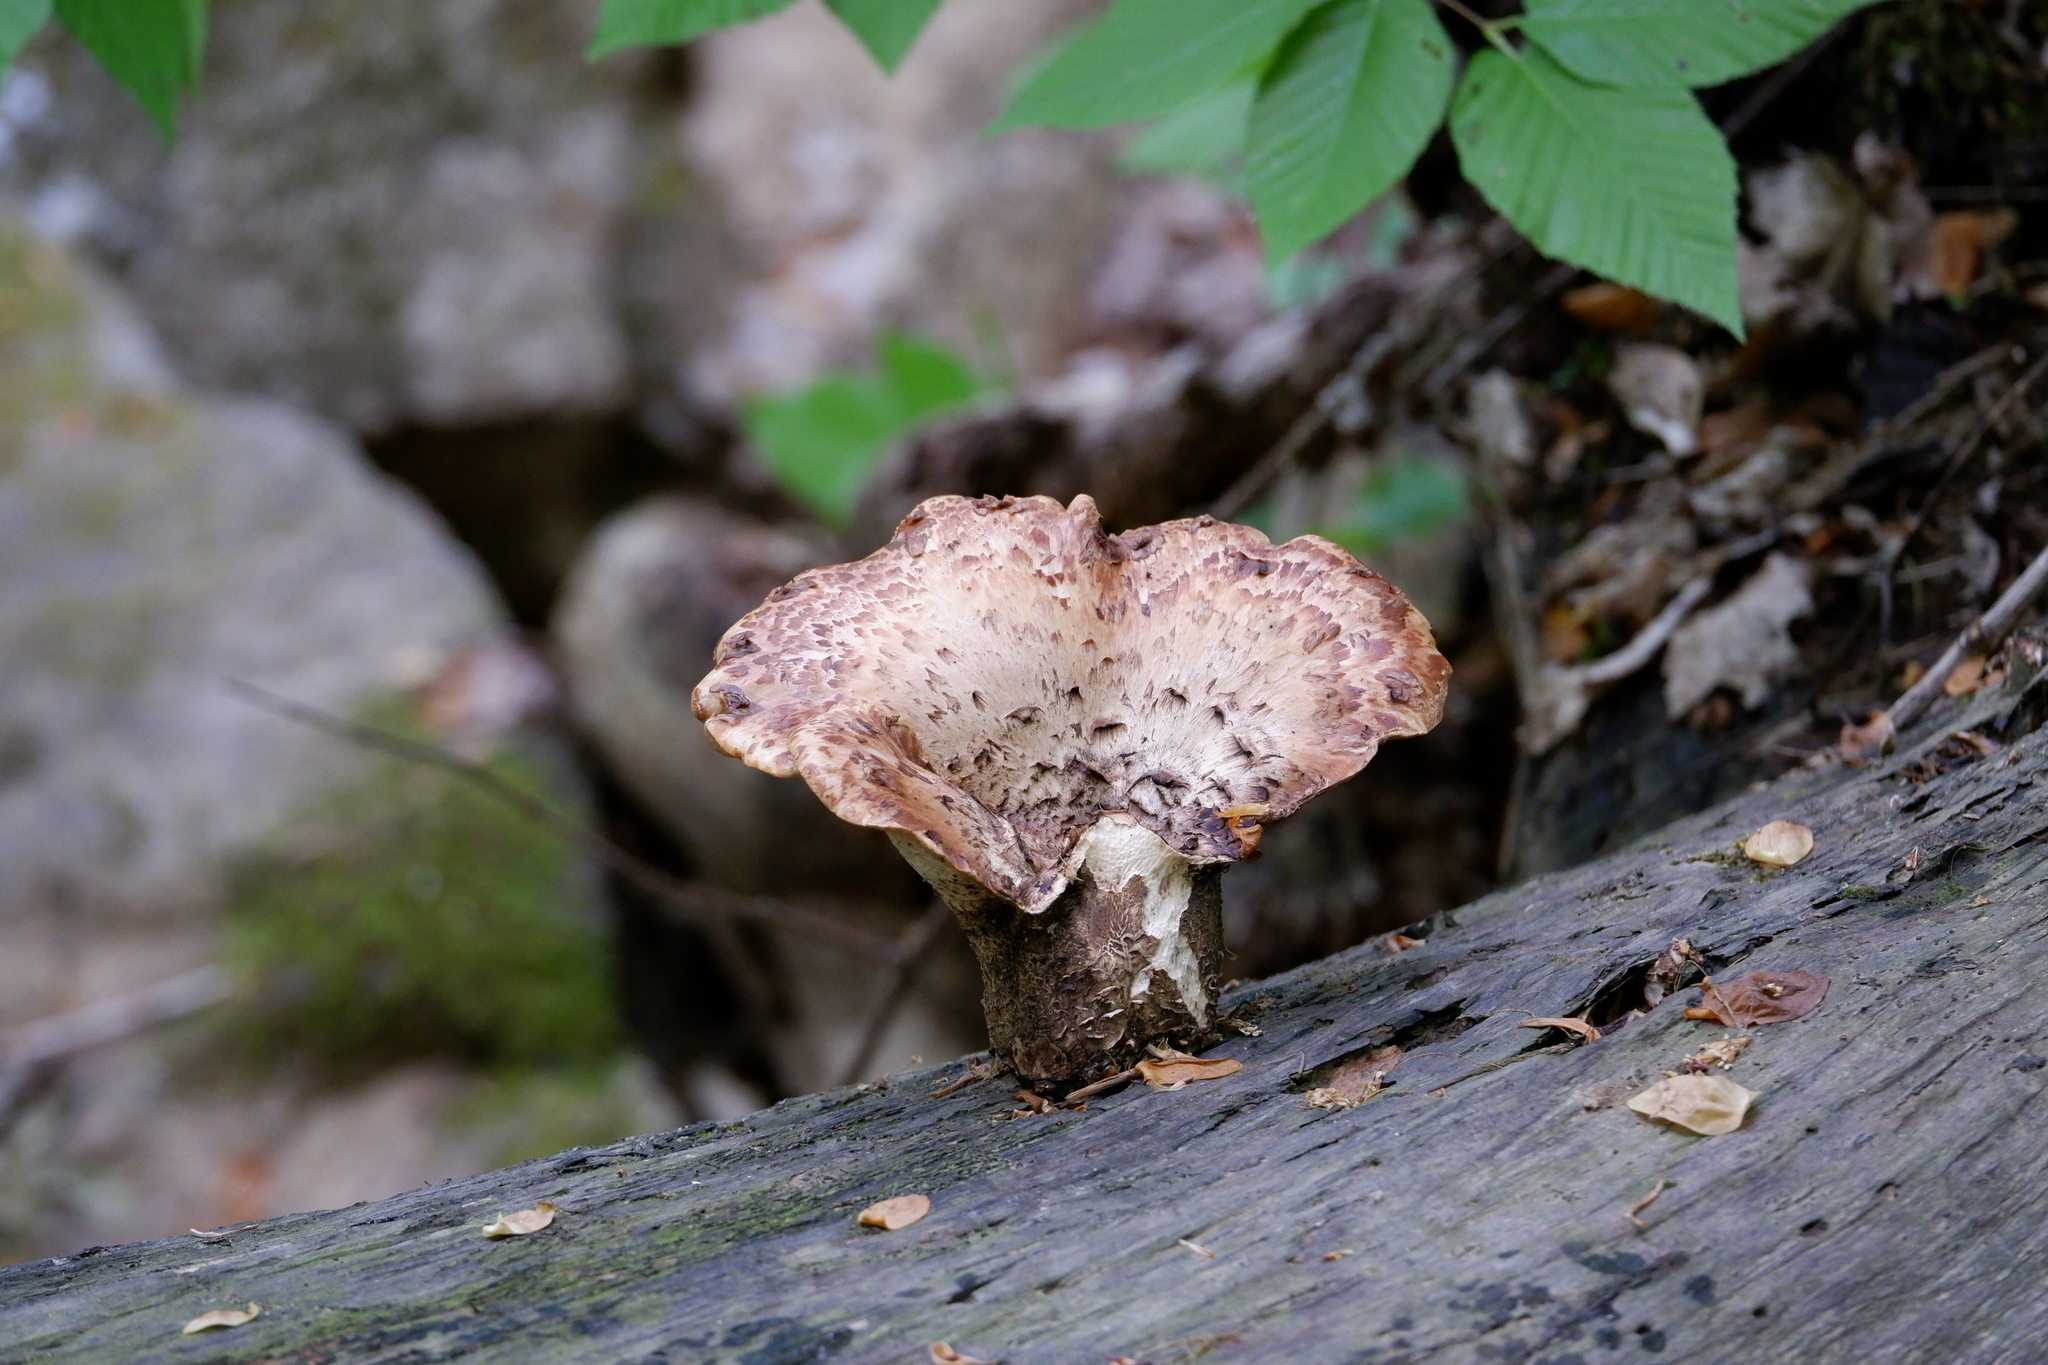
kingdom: Fungi
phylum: Basidiomycota
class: Agaricomycetes
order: Polyporales
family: Polyporaceae
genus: Cerioporus
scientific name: Cerioporus squamosus
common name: Dryad's saddle
